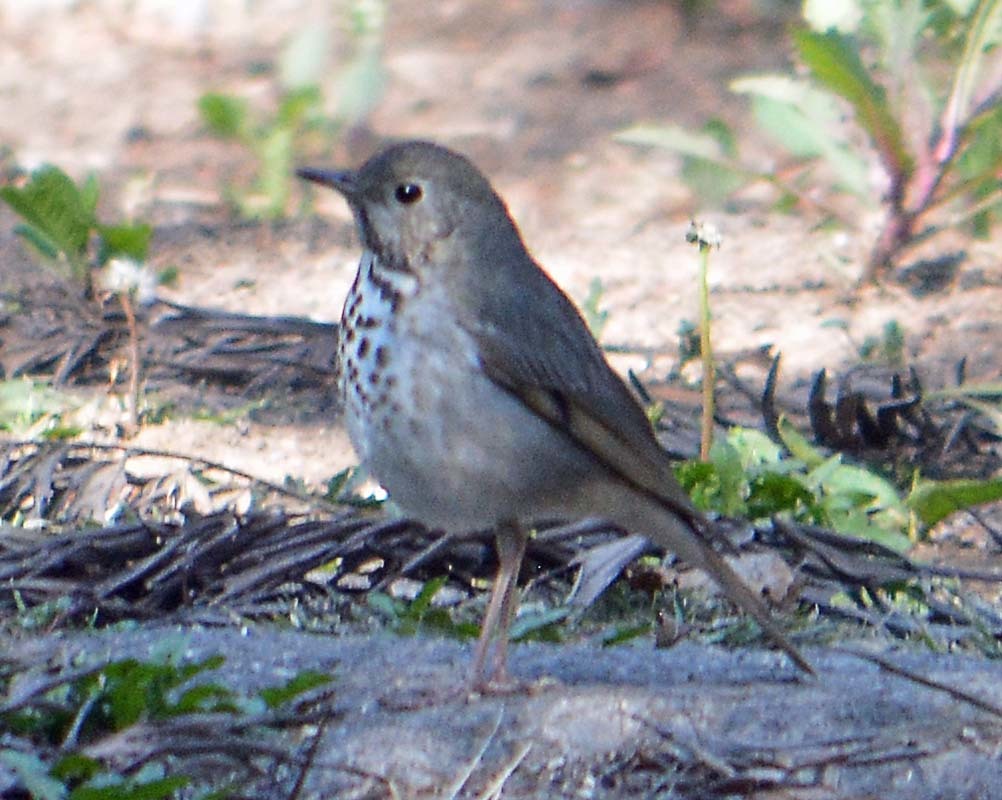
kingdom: Animalia
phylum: Chordata
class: Aves
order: Passeriformes
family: Turdidae
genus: Catharus
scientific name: Catharus guttatus
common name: Hermit thrush
